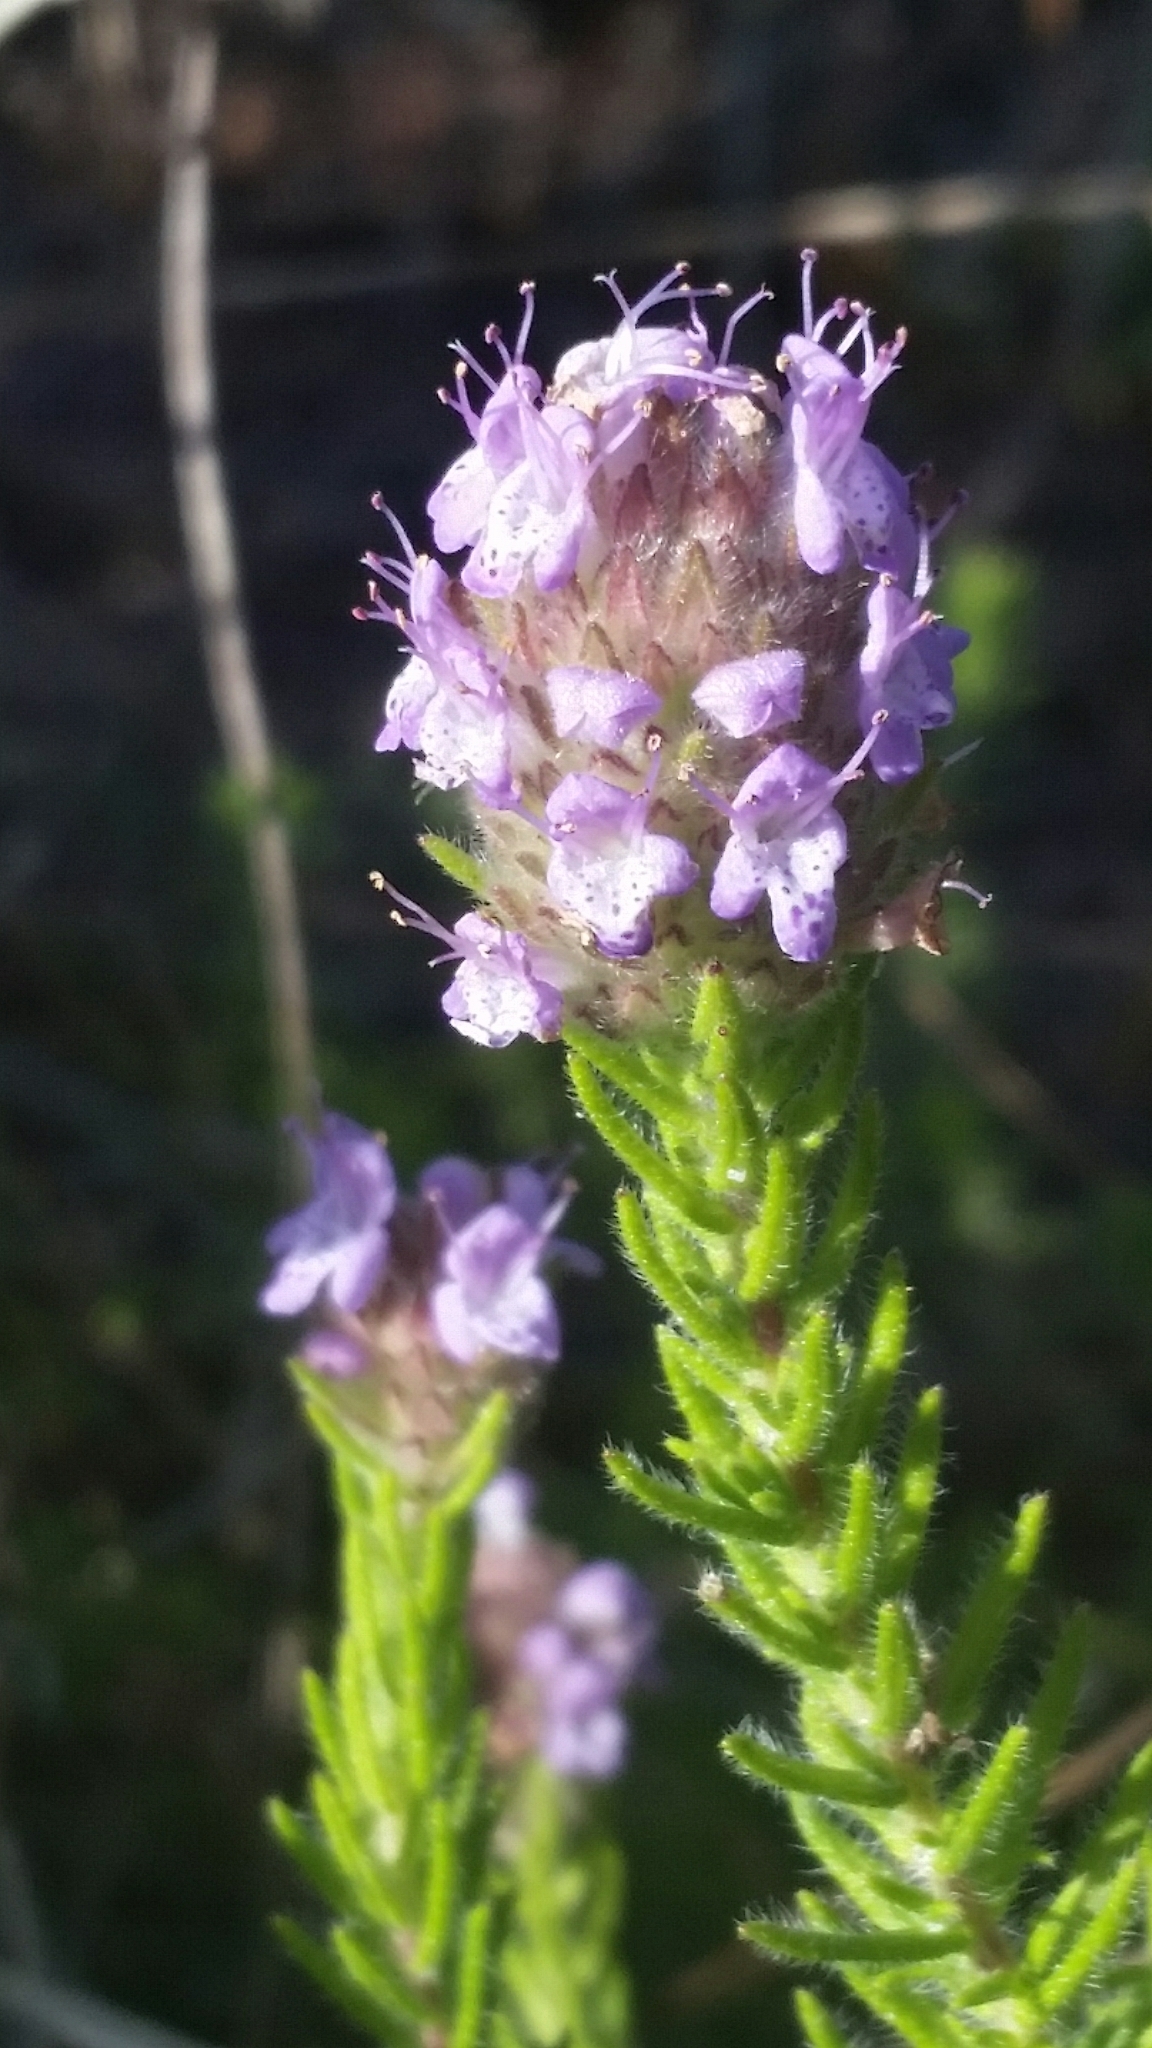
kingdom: Plantae
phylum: Tracheophyta
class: Magnoliopsida
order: Lamiales
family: Lamiaceae
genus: Piloblephis
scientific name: Piloblephis rigida
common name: Wild pennyroyal
